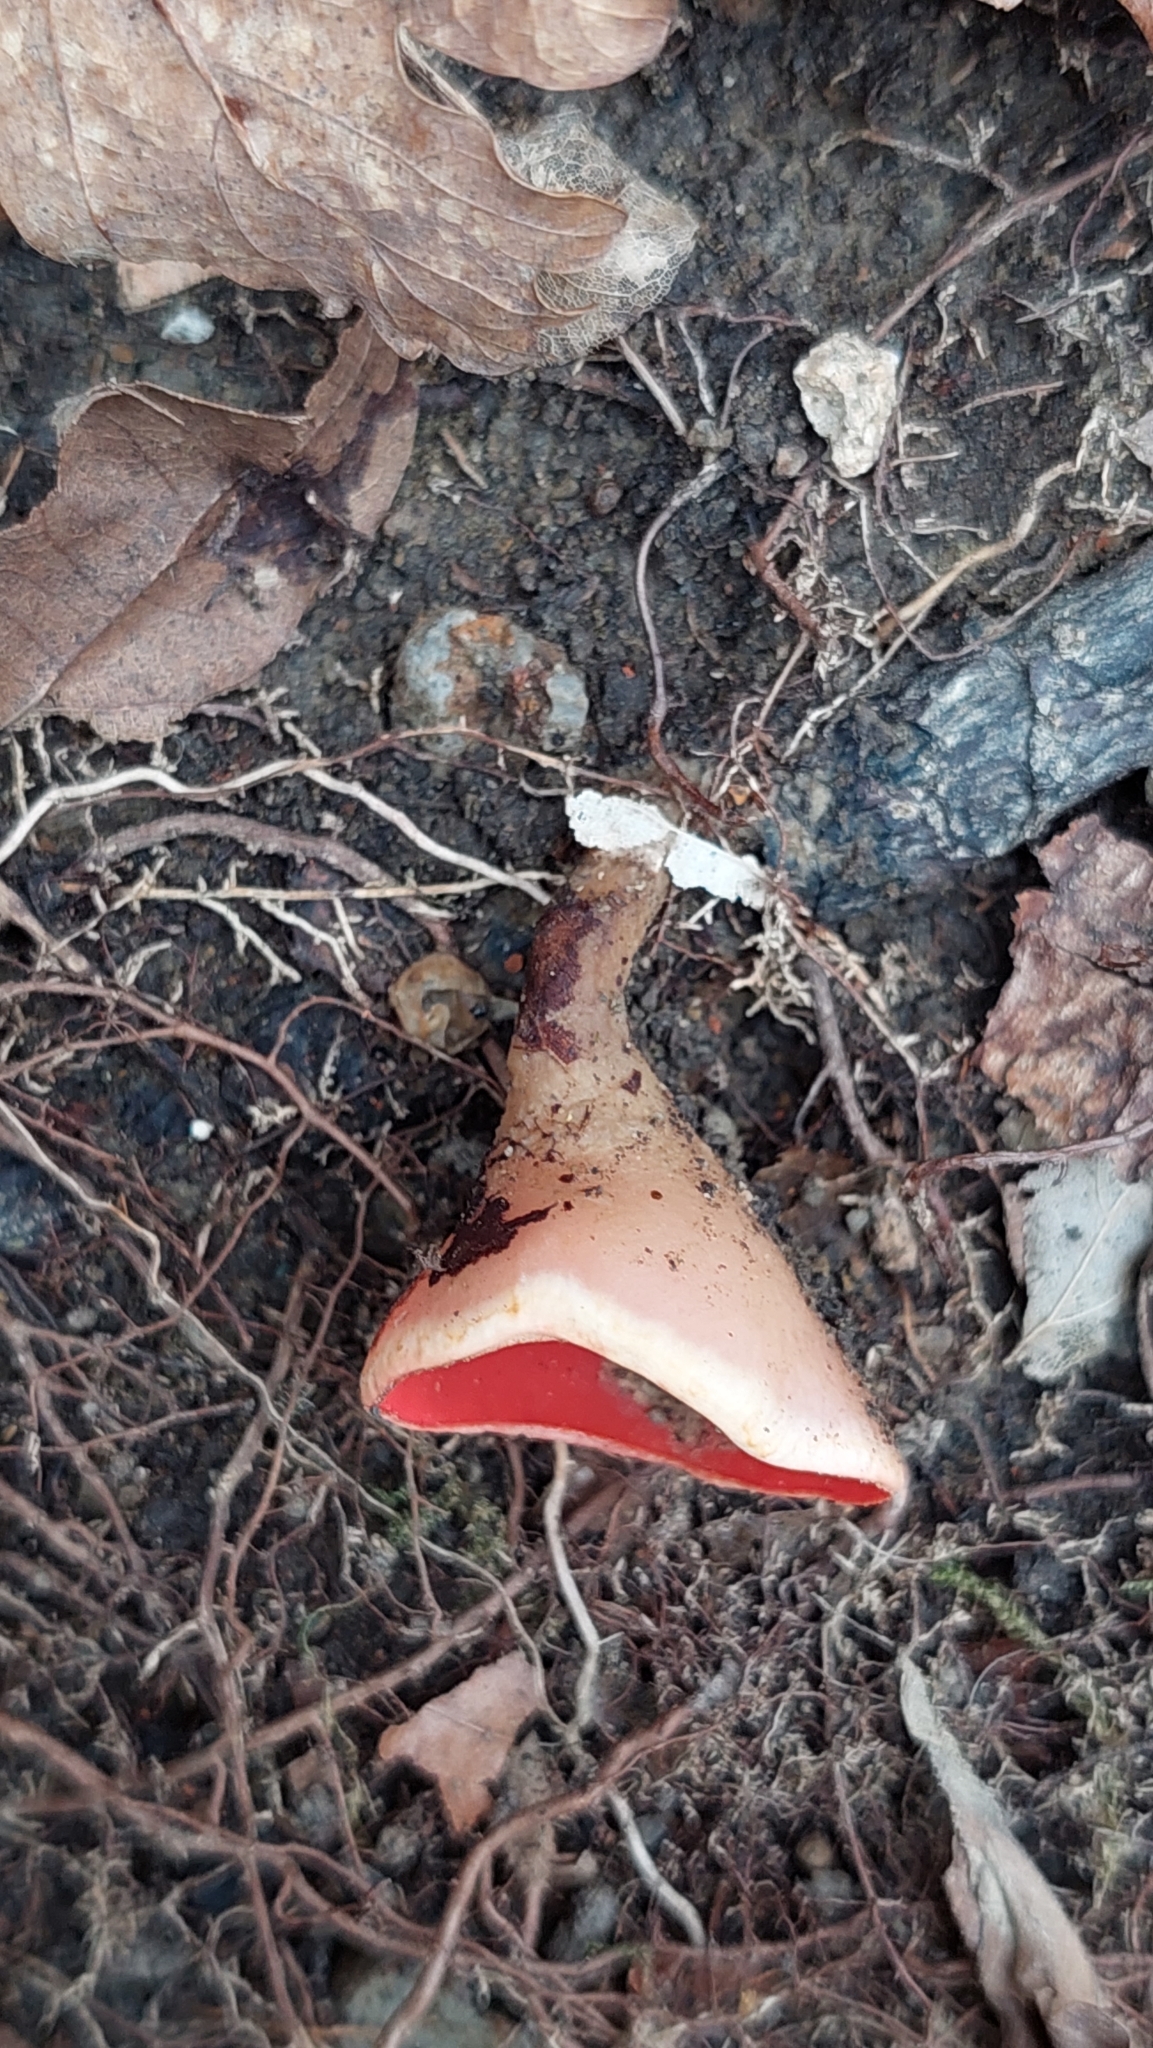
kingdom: Fungi
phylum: Ascomycota
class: Pezizomycetes
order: Pezizales
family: Sarcoscyphaceae
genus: Sarcoscypha
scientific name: Sarcoscypha
